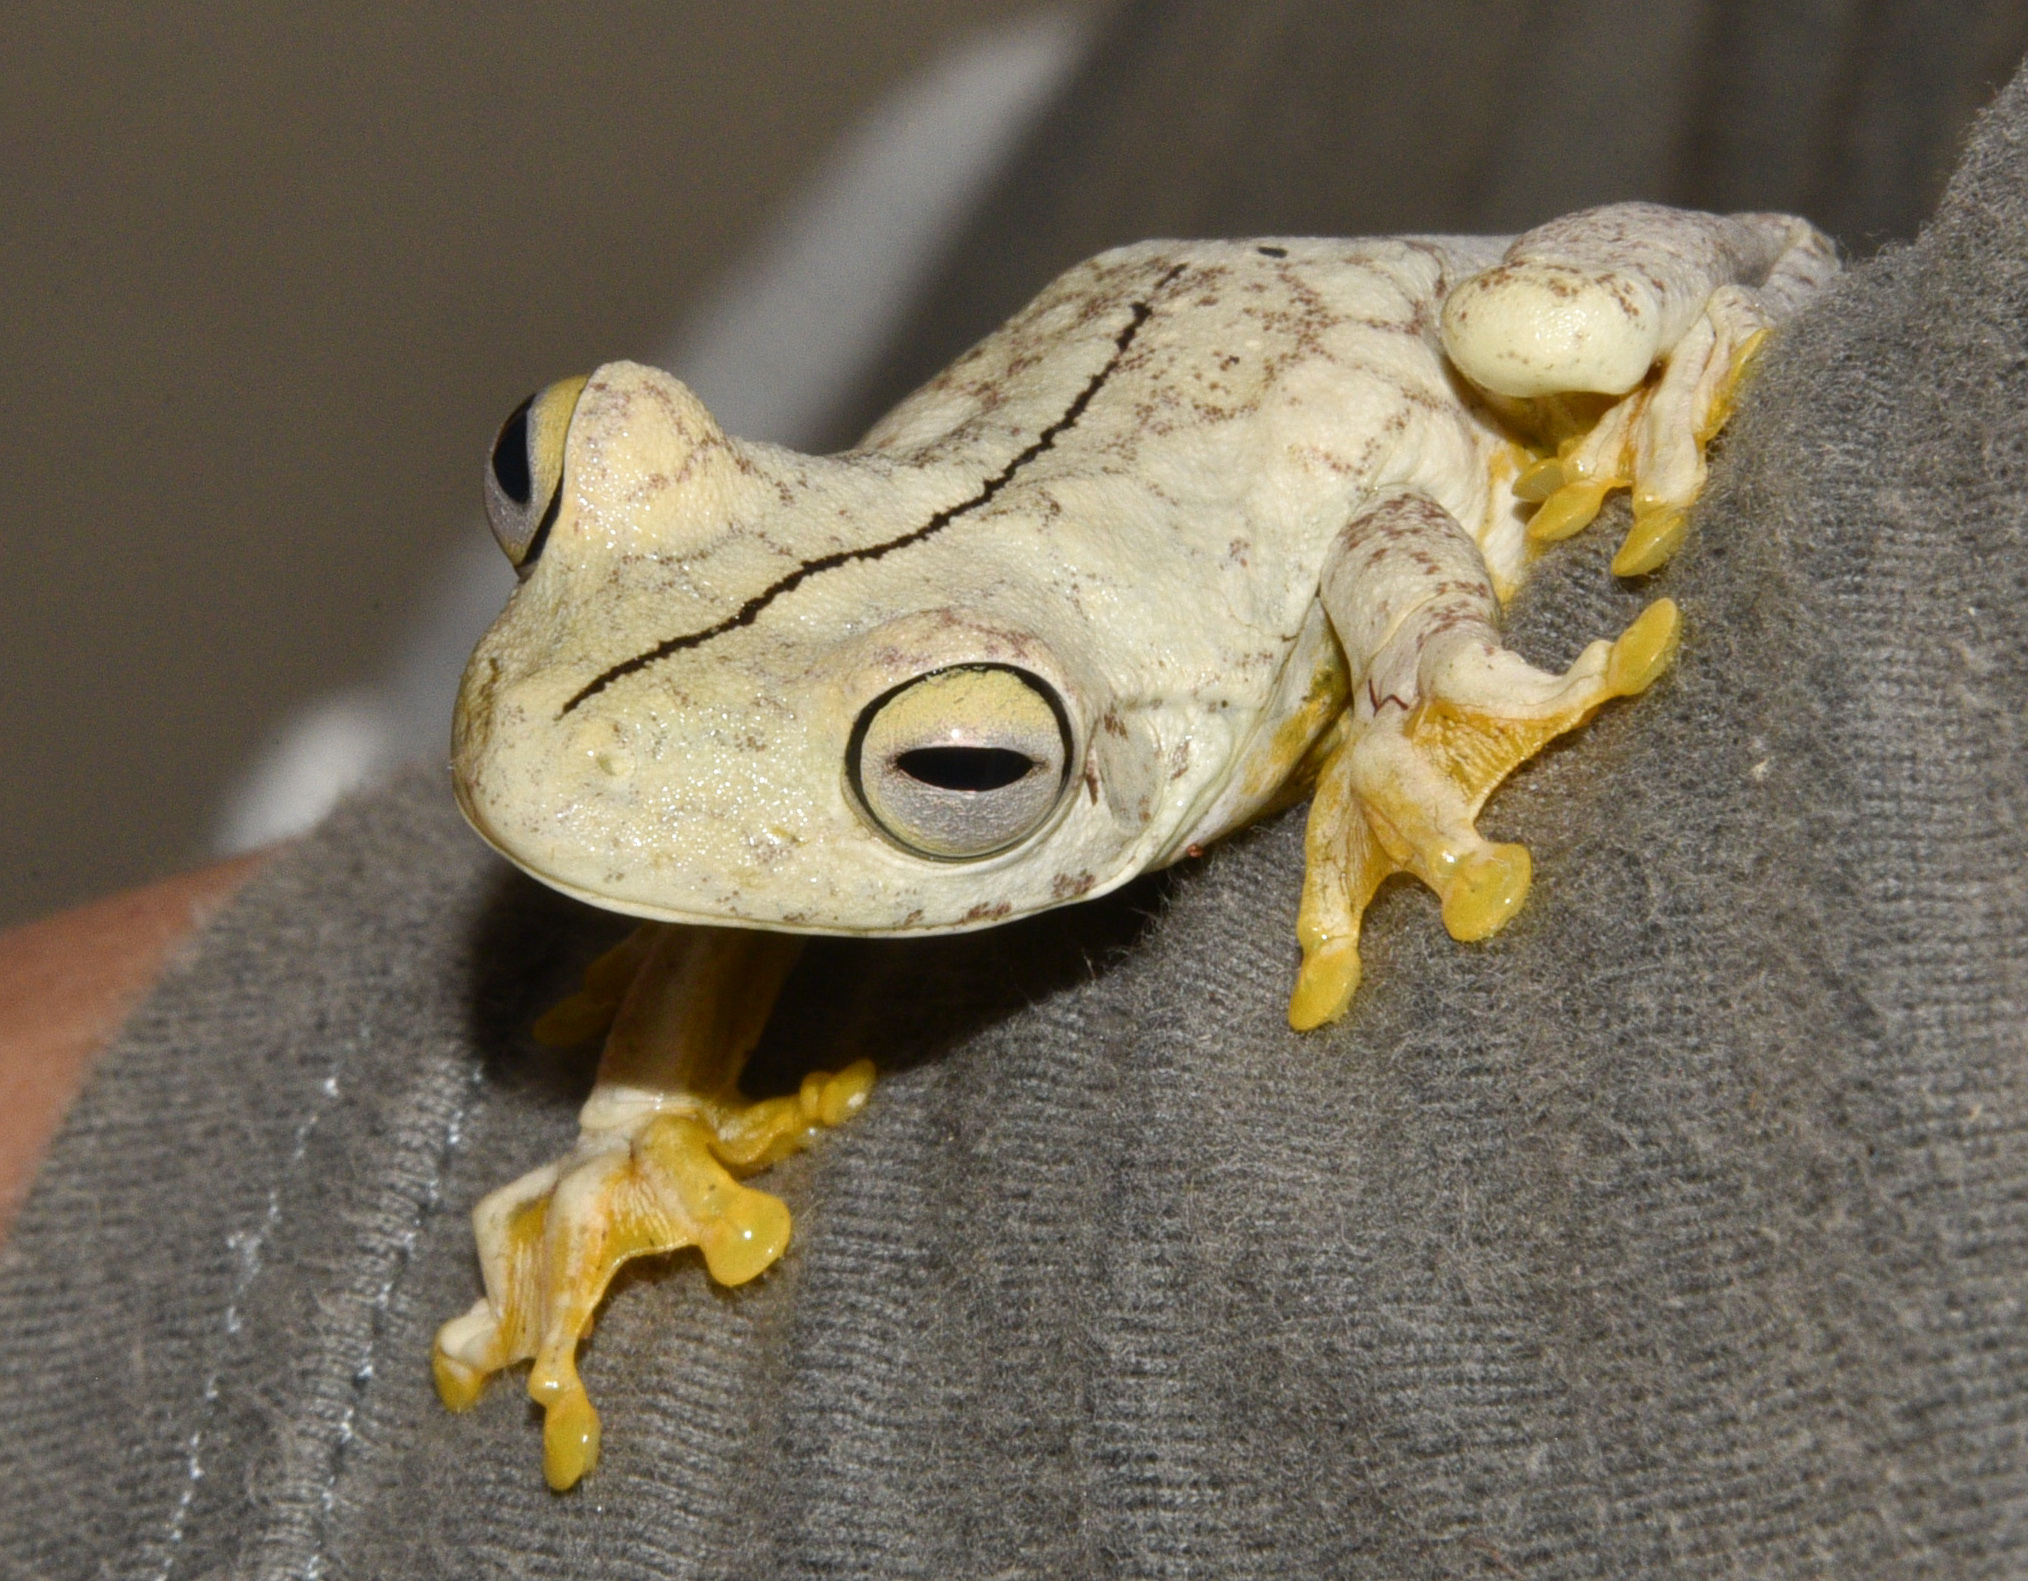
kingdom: Animalia
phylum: Chordata
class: Amphibia
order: Anura
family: Hylidae
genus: Boana
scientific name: Boana rosenbergi
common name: Rosenberg´s gladiator treefrog
